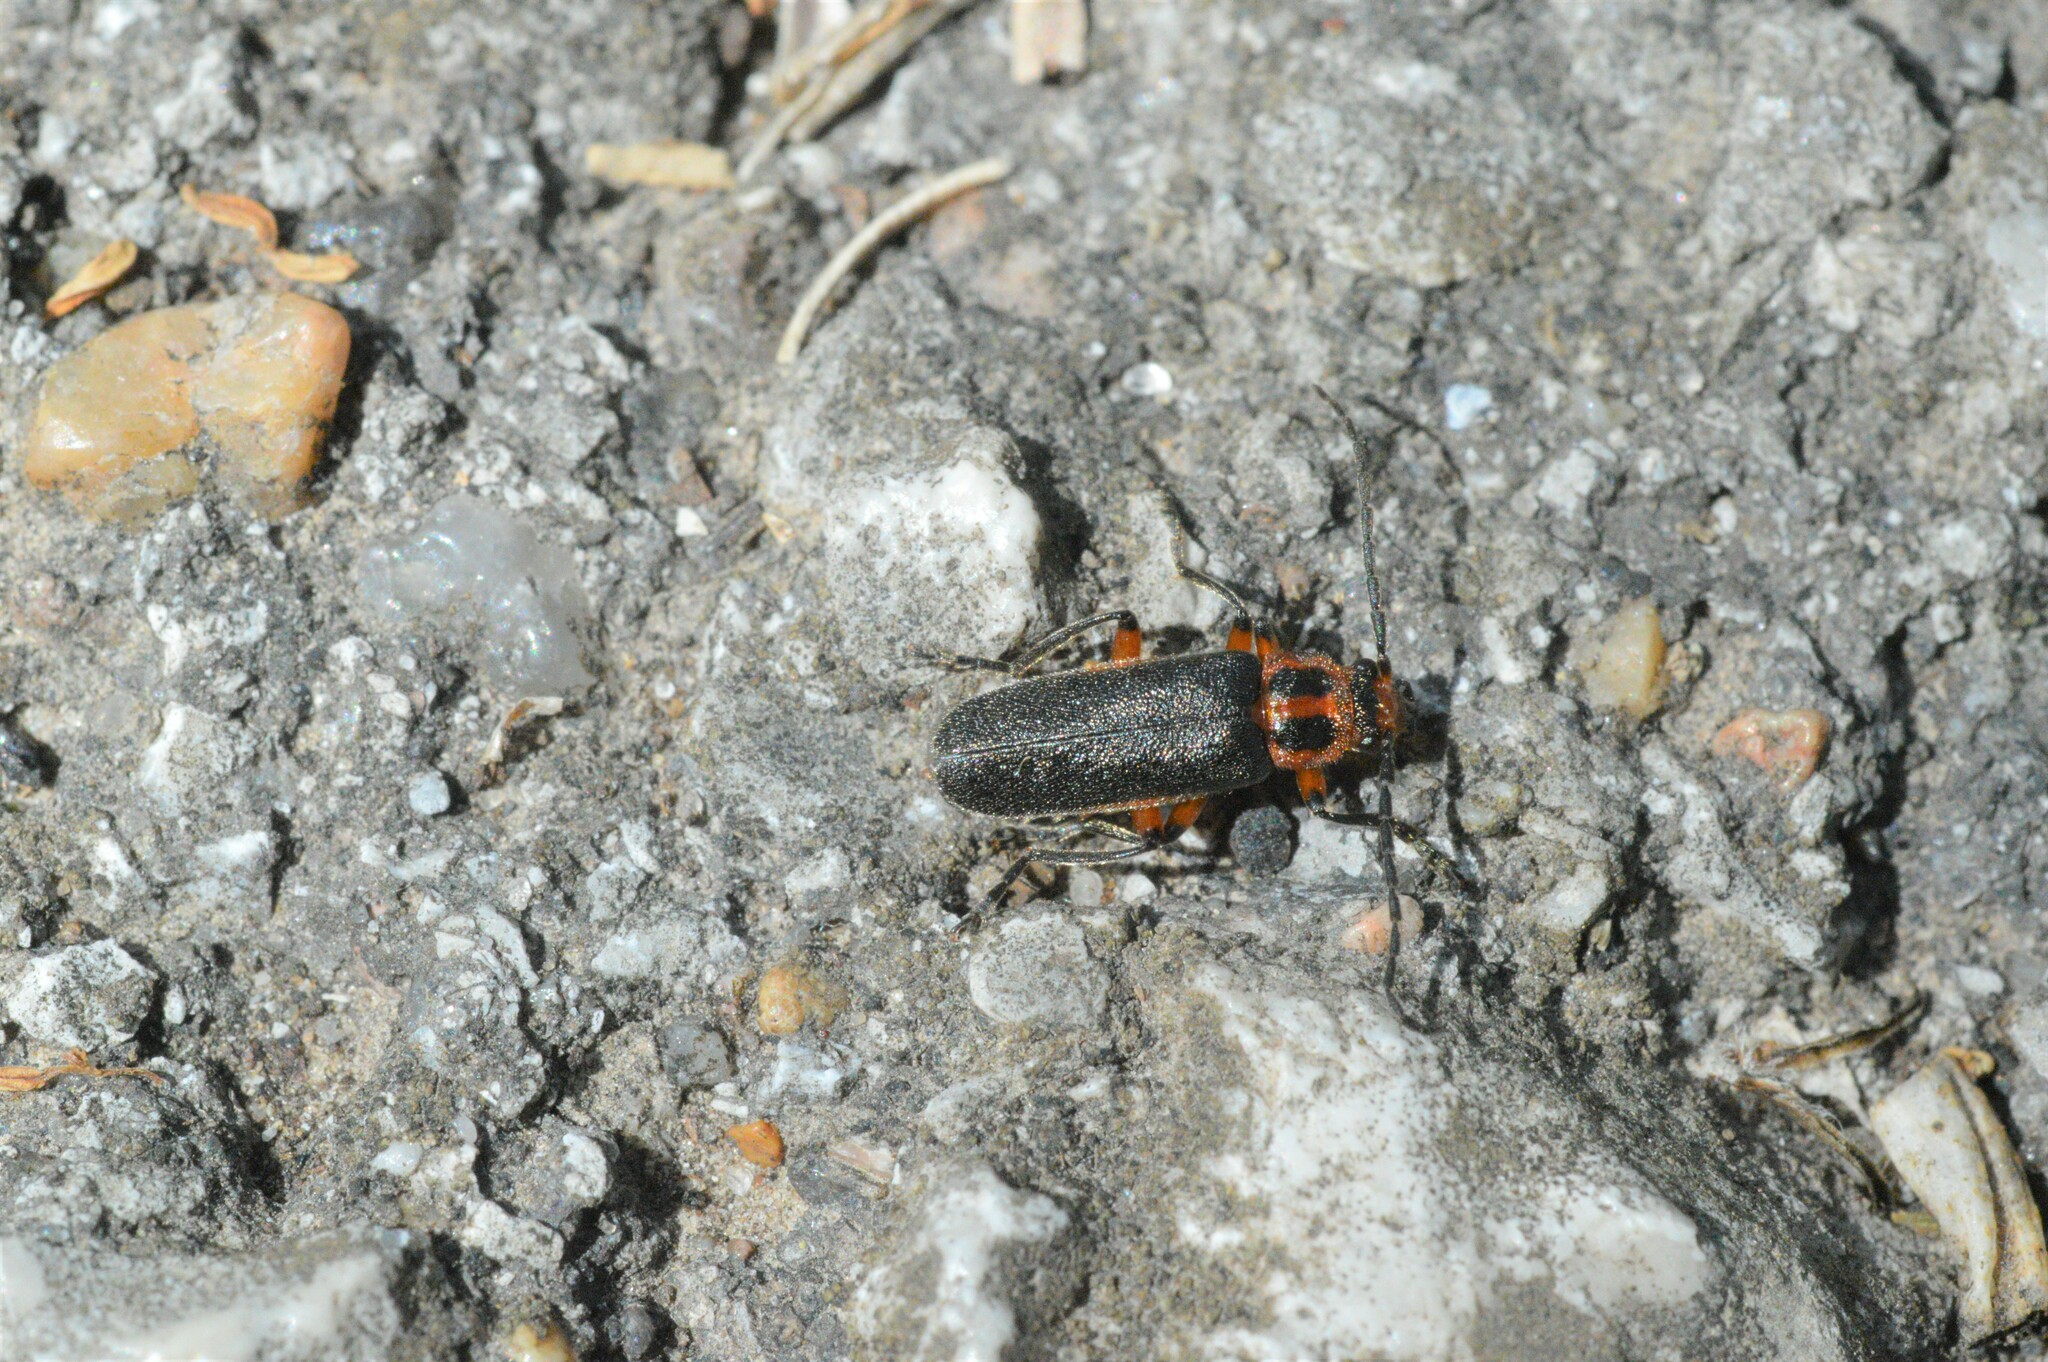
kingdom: Animalia
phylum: Arthropoda
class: Insecta
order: Coleoptera
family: Cantharidae
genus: Atalantycha
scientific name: Atalantycha bilineata
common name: Two-lined leatherwing
